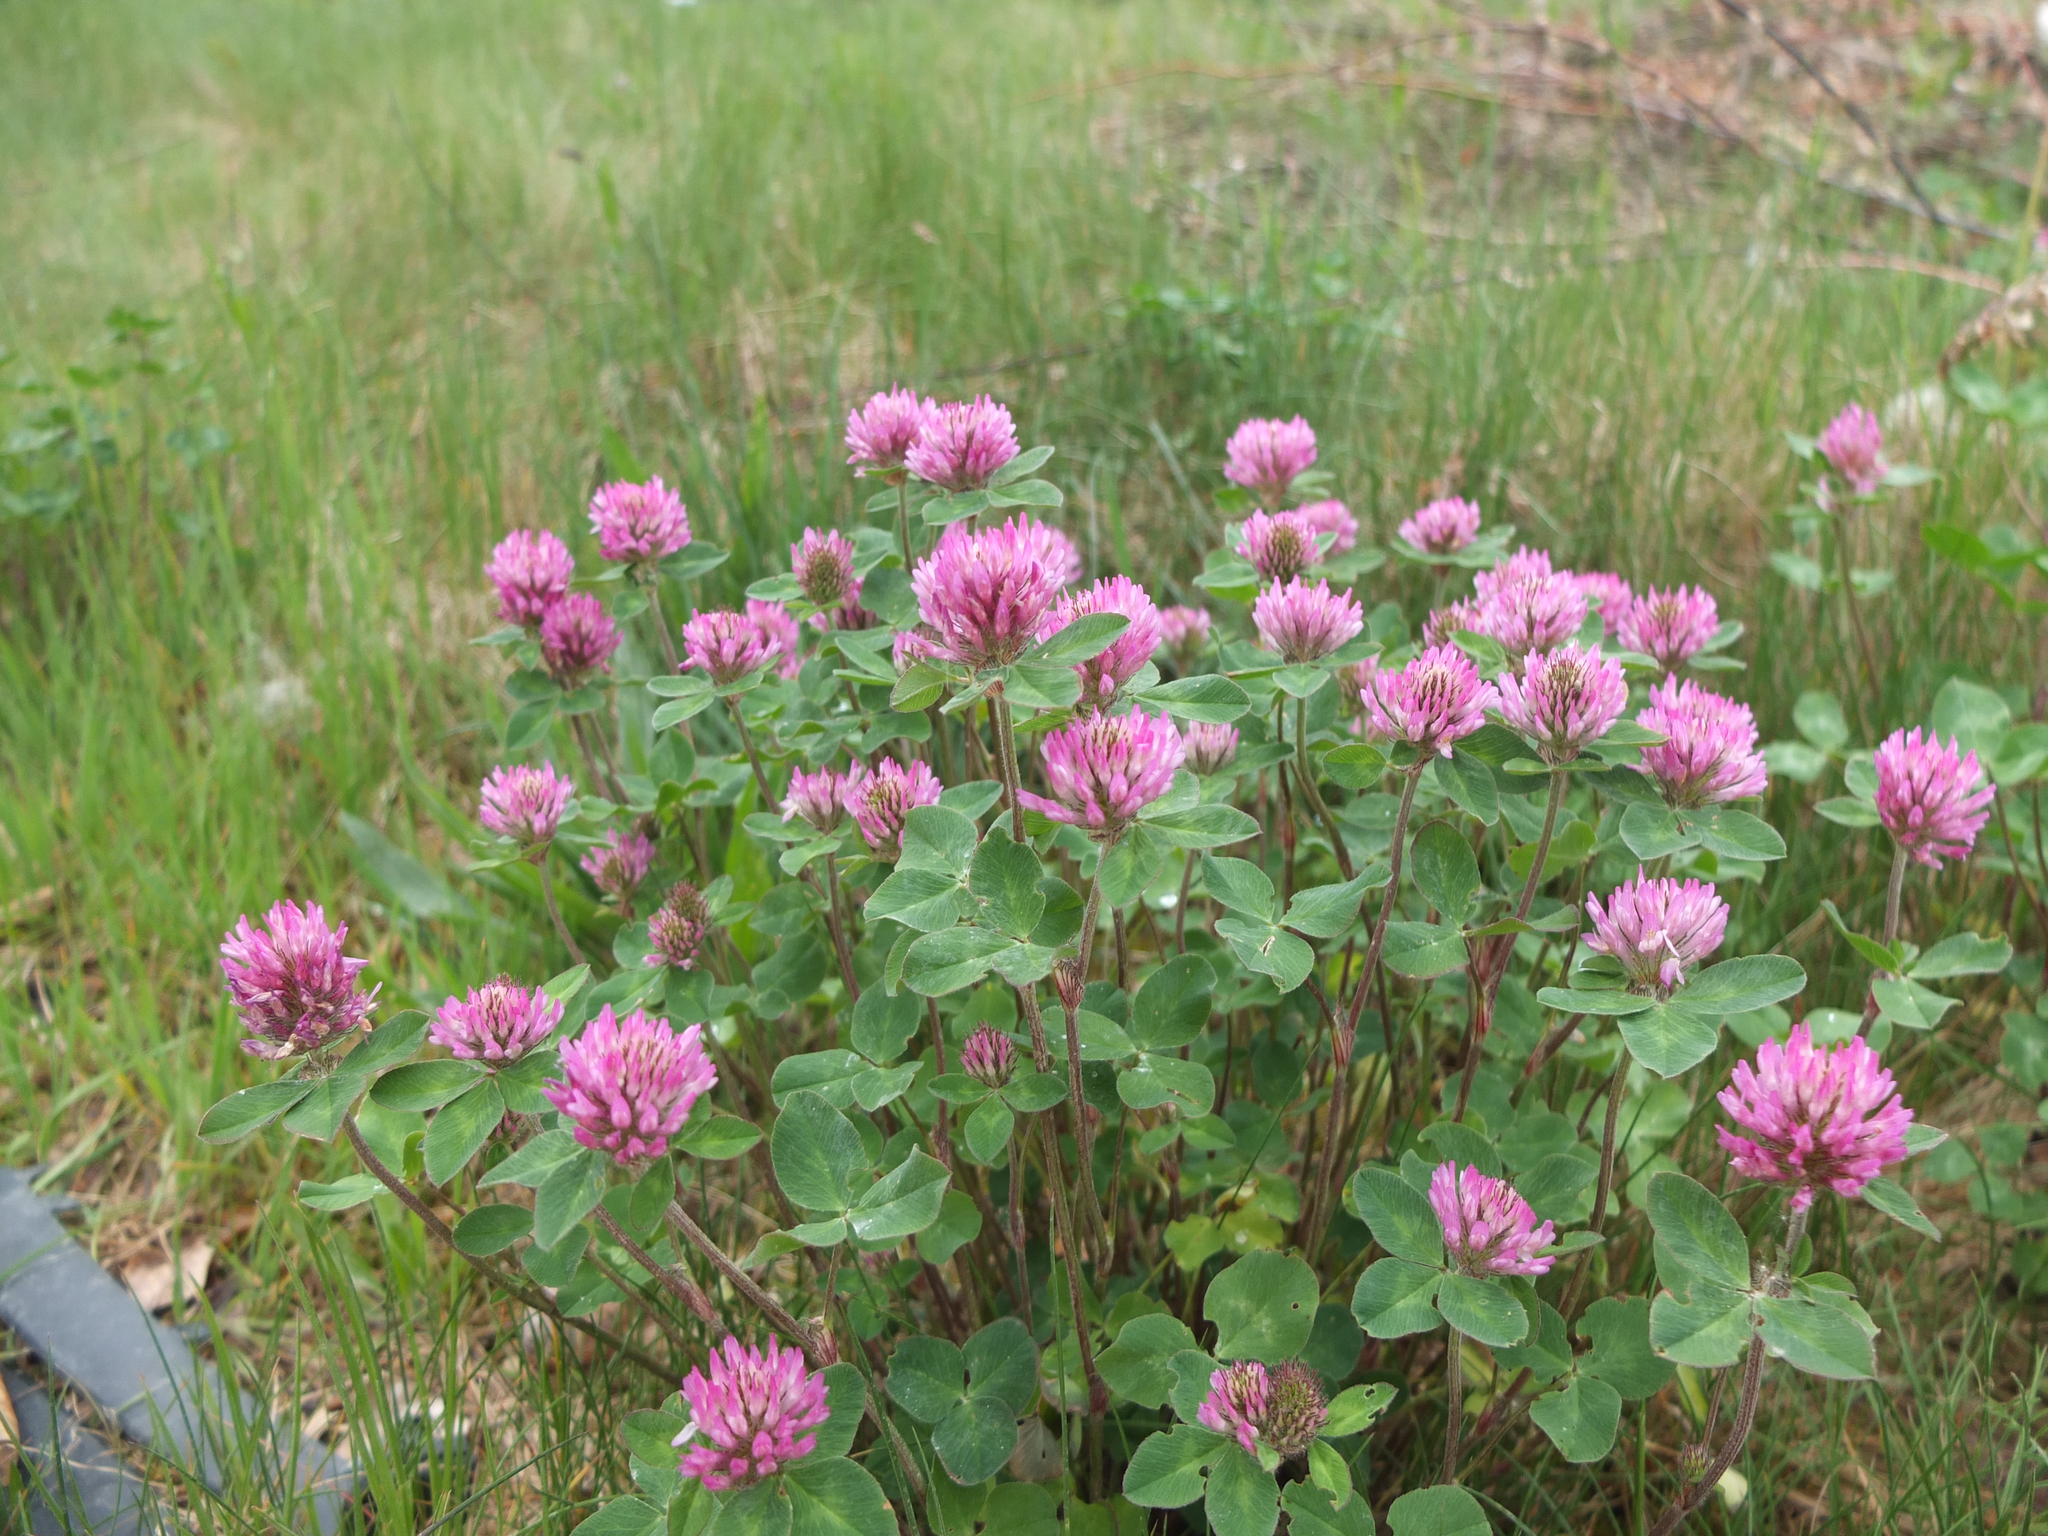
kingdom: Plantae
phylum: Tracheophyta
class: Magnoliopsida
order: Fabales
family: Fabaceae
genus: Trifolium
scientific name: Trifolium pratense
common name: Red clover
